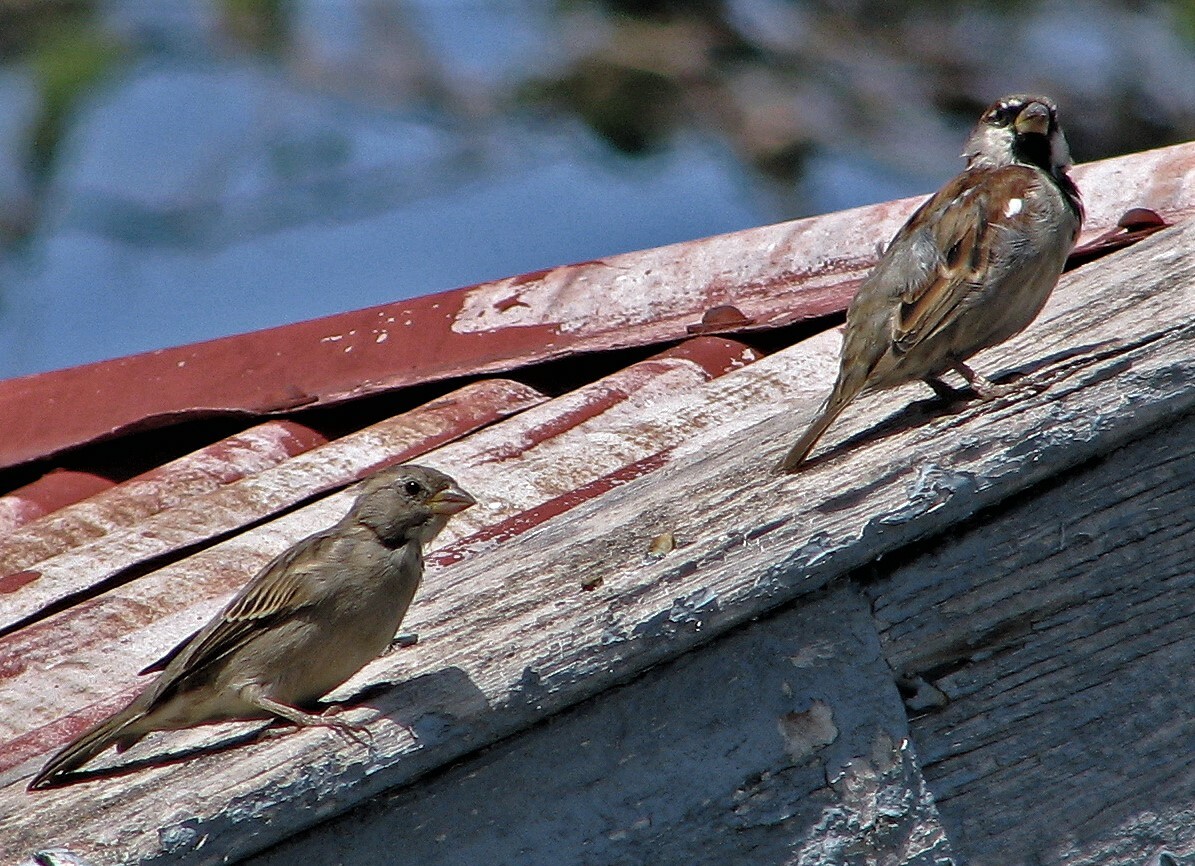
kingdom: Animalia
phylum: Chordata
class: Aves
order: Passeriformes
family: Passeridae
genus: Passer
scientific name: Passer domesticus
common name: House sparrow
